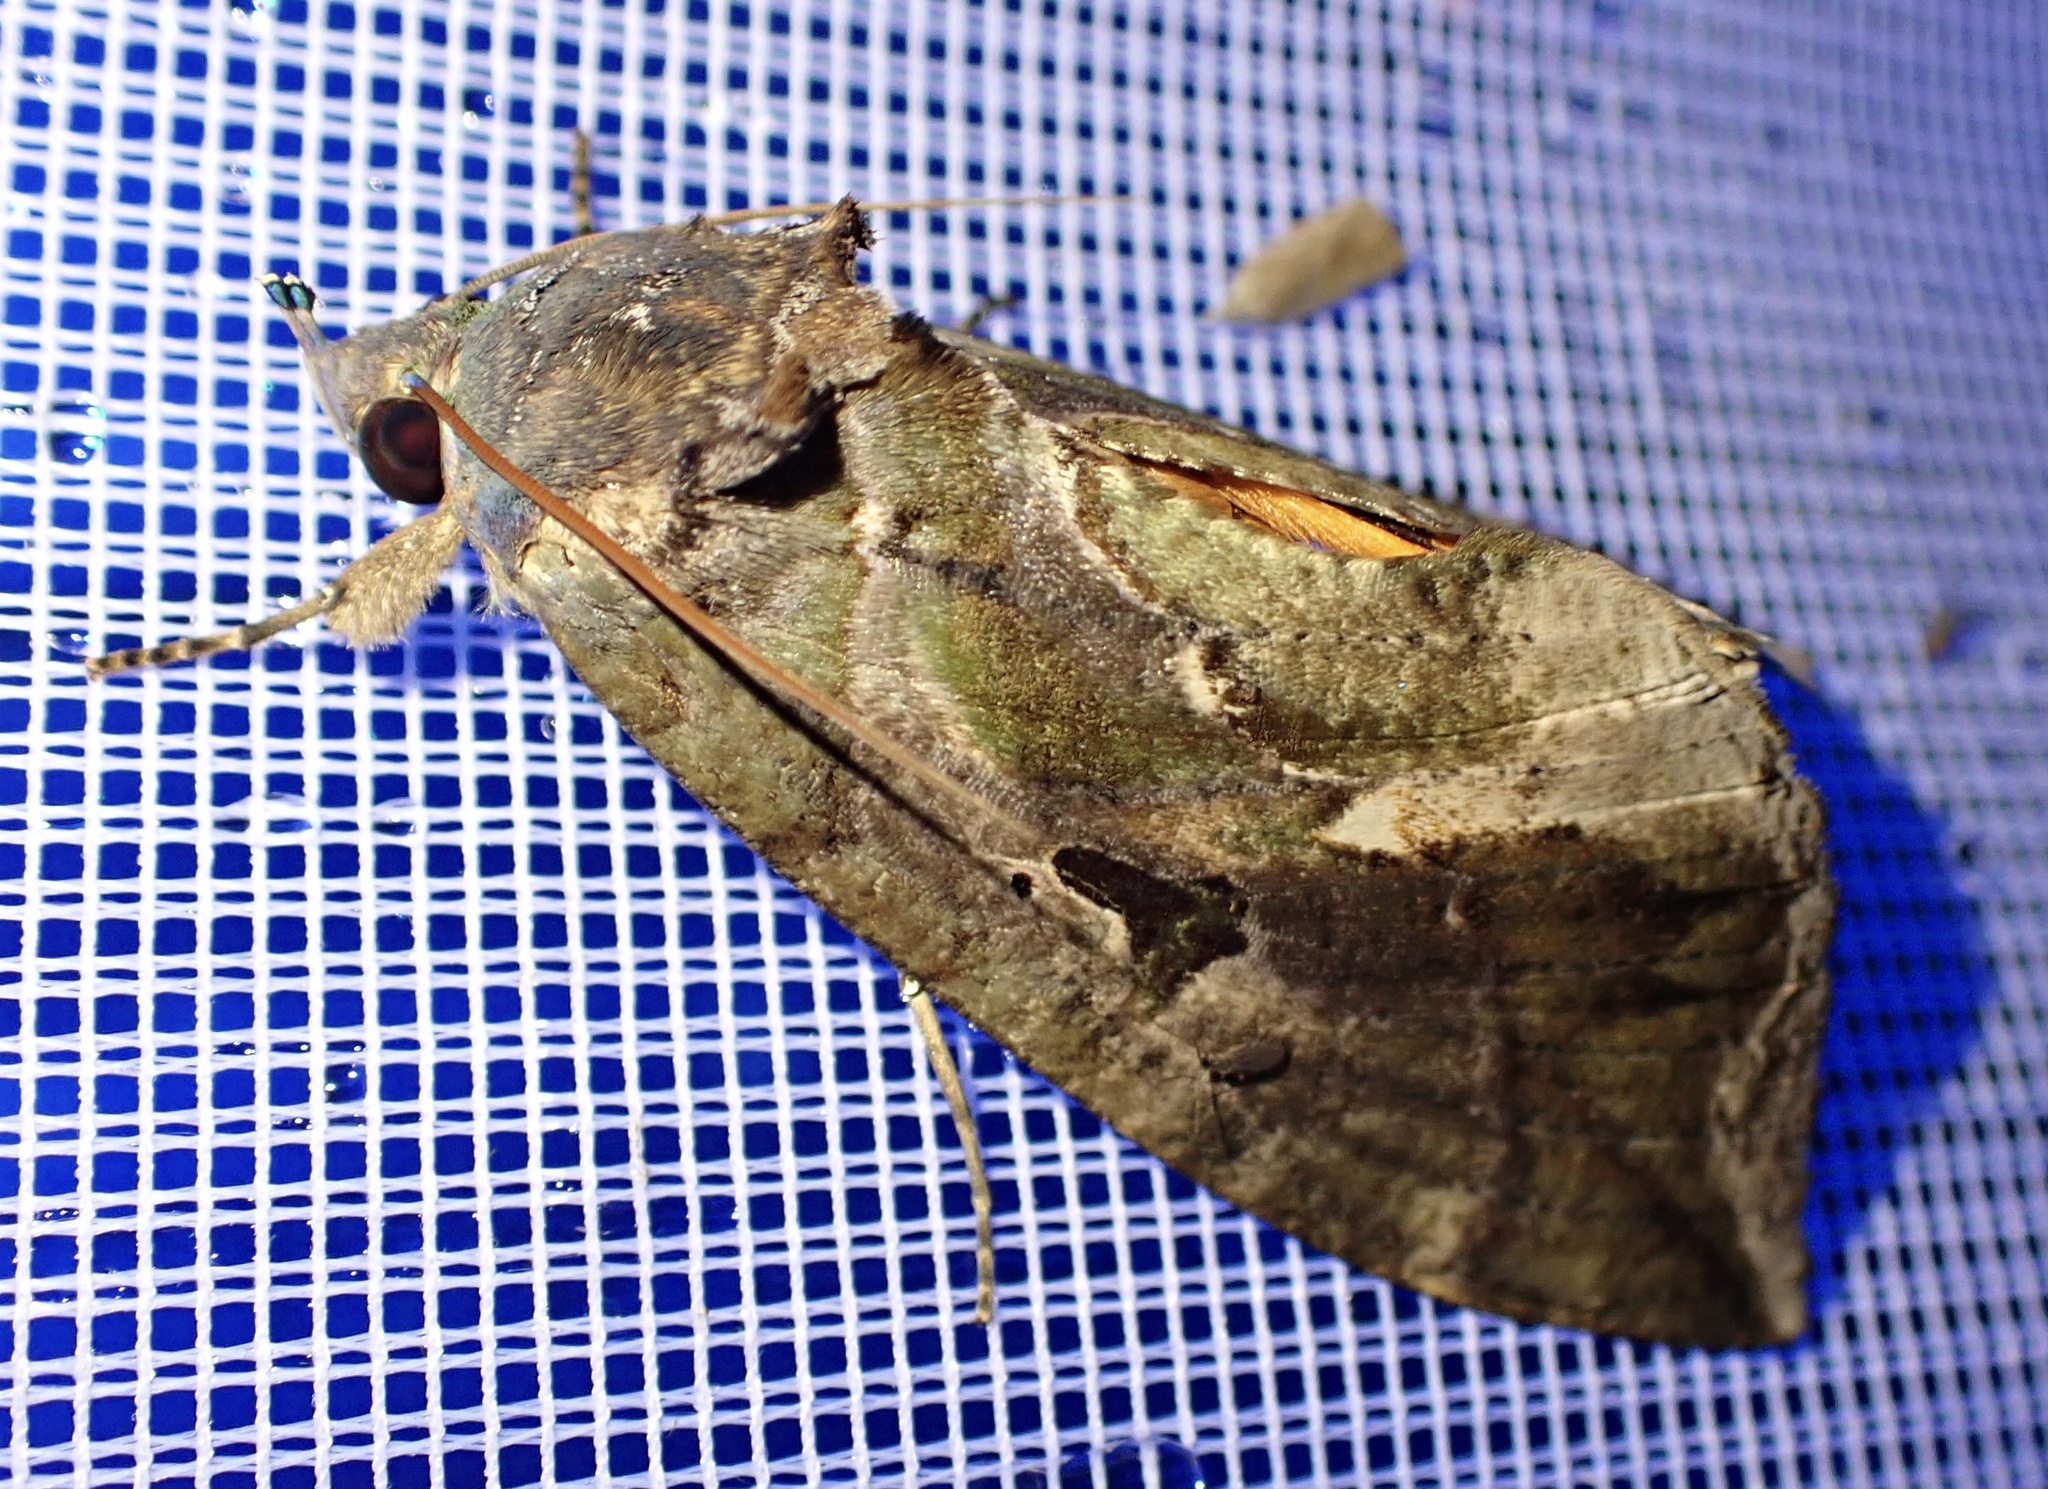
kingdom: Animalia
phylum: Arthropoda
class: Insecta
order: Lepidoptera
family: Erebidae
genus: Eudocima
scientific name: Eudocima phalonia
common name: Wasp
